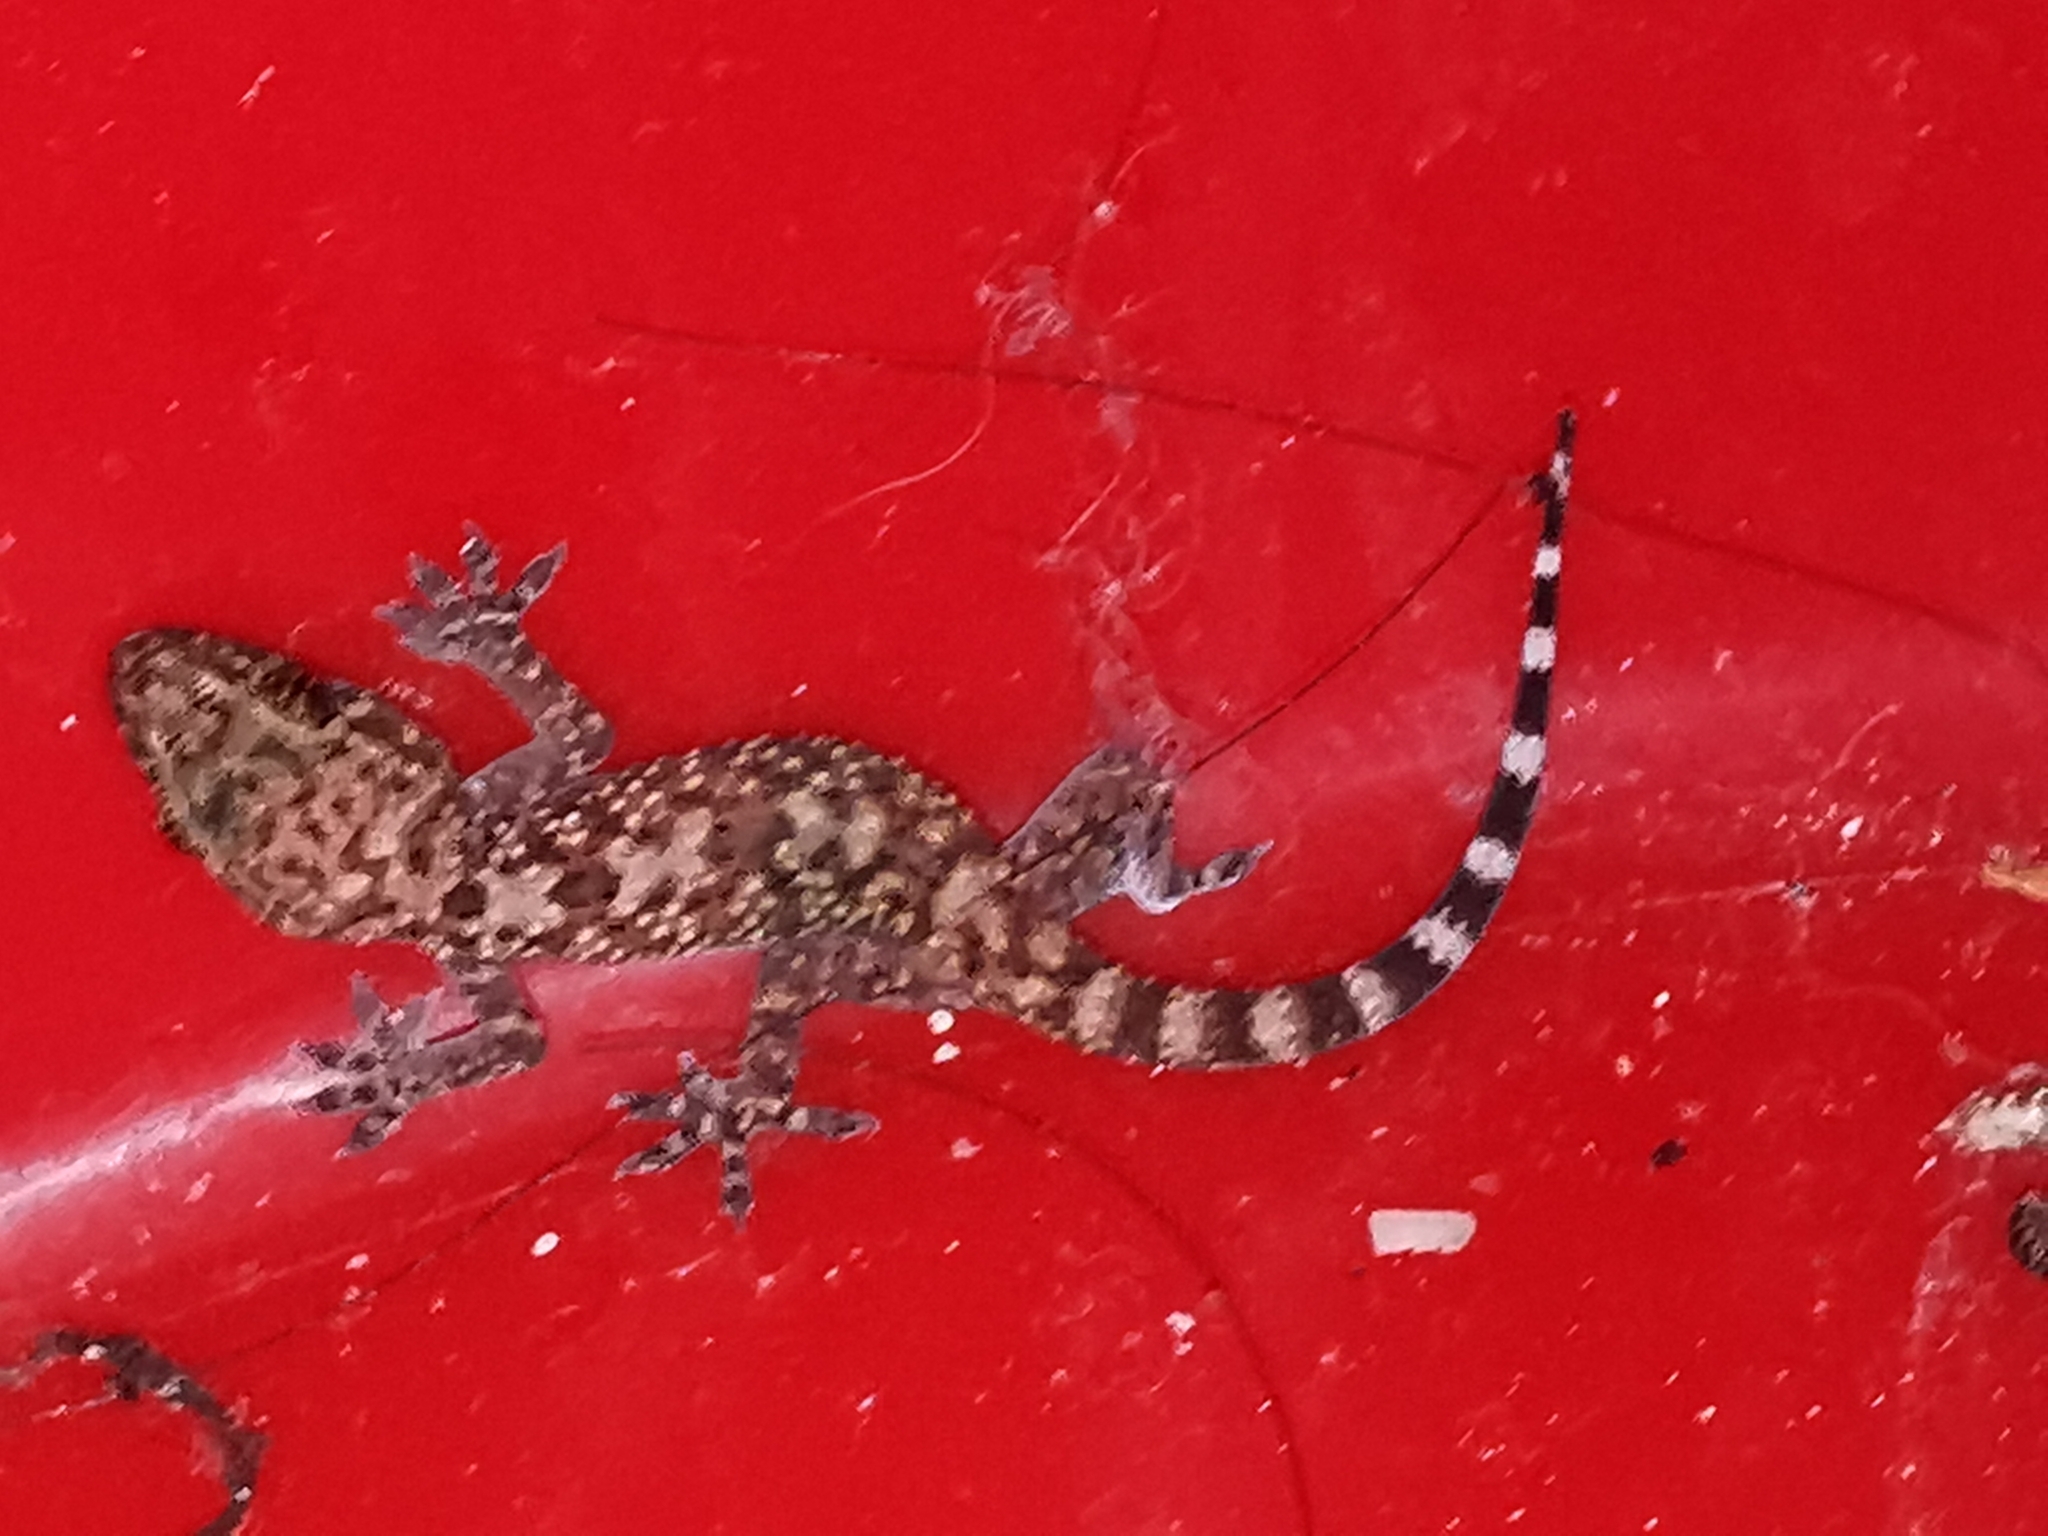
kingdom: Animalia
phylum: Chordata
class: Squamata
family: Gekkonidae
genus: Hemidactylus
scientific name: Hemidactylus turcicus
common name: Turkish gecko
